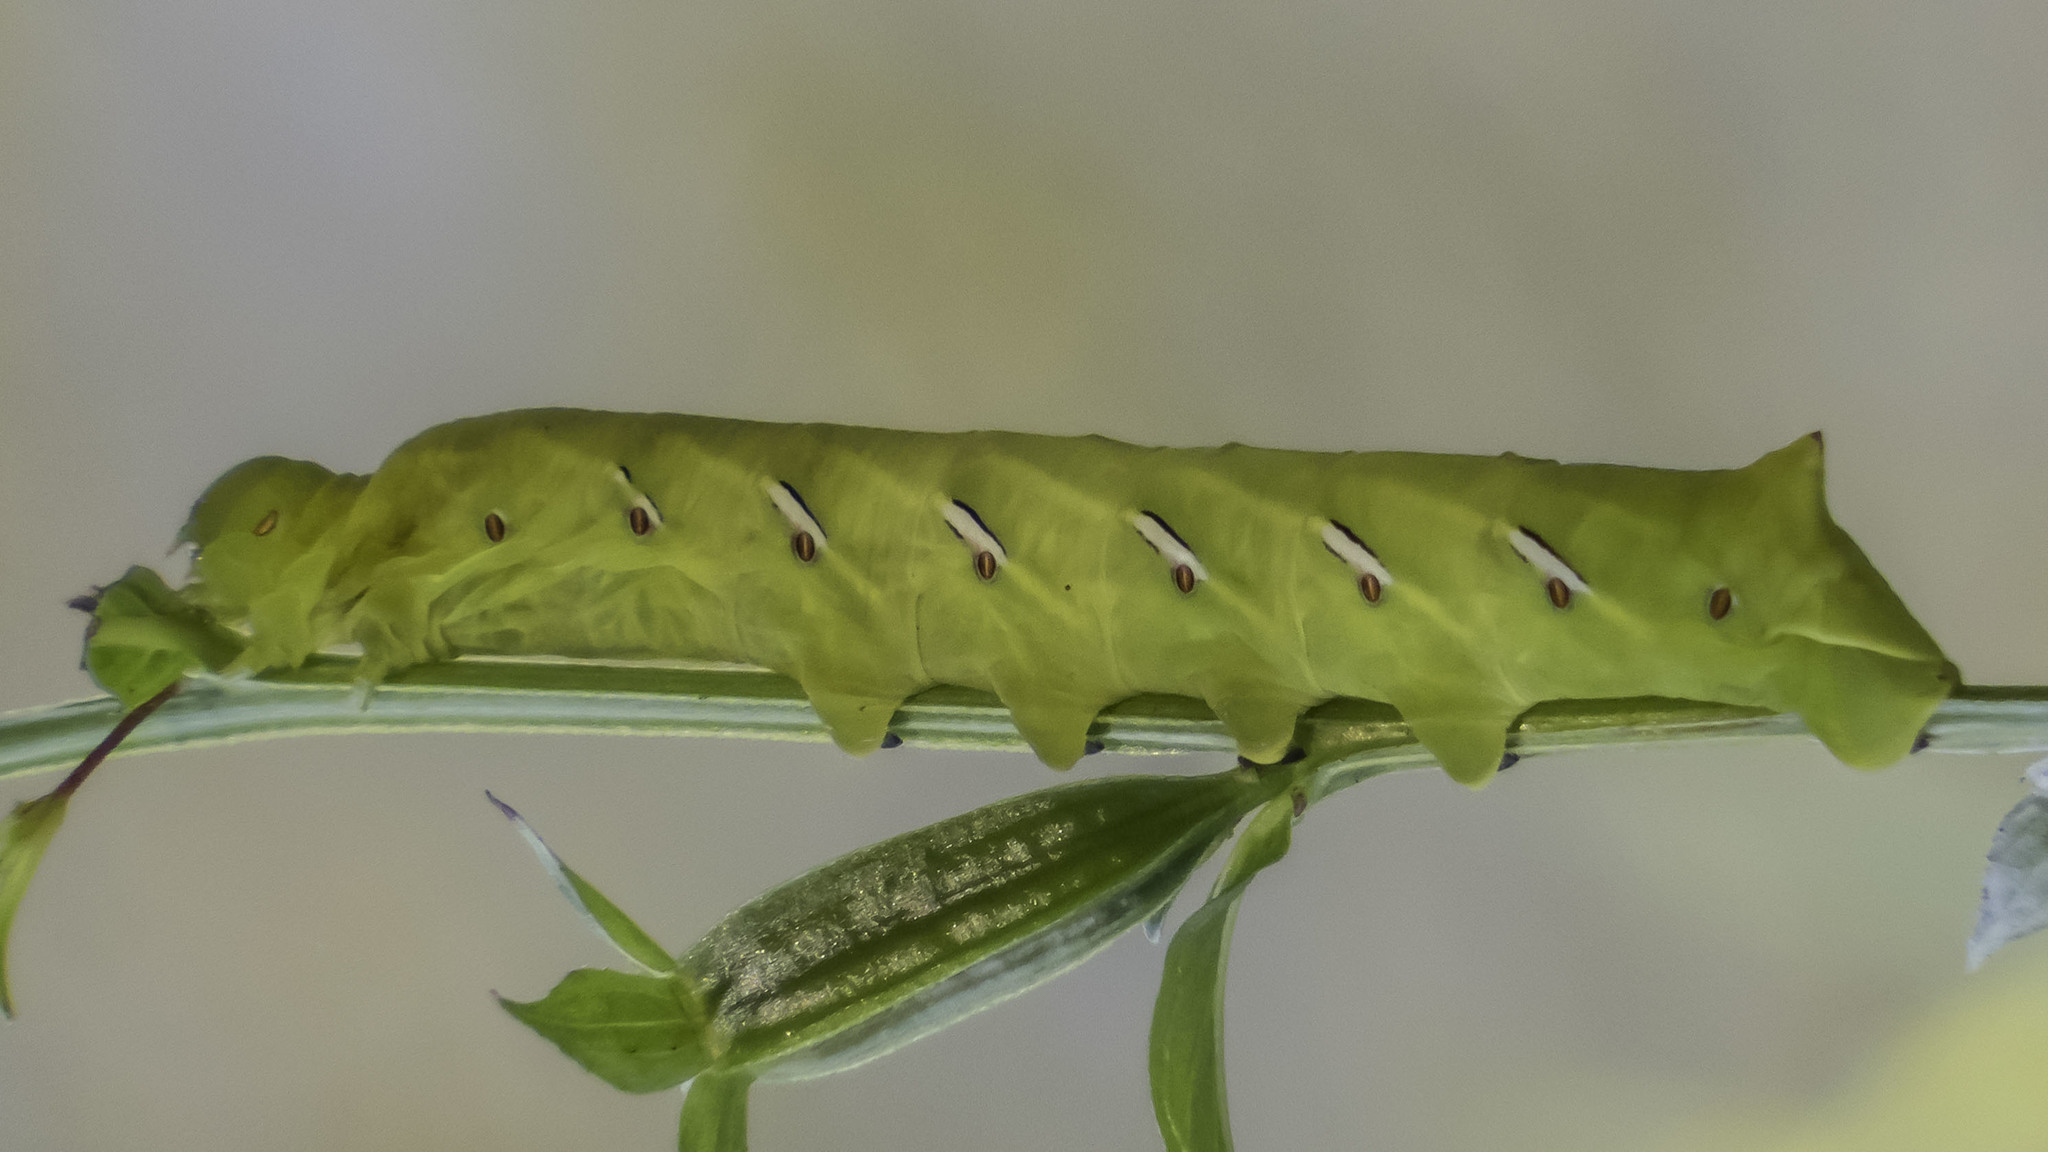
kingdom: Animalia
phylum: Arthropoda
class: Insecta
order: Lepidoptera
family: Sphingidae
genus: Eumorpha
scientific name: Eumorpha fasciatus
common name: Banded sphinx
